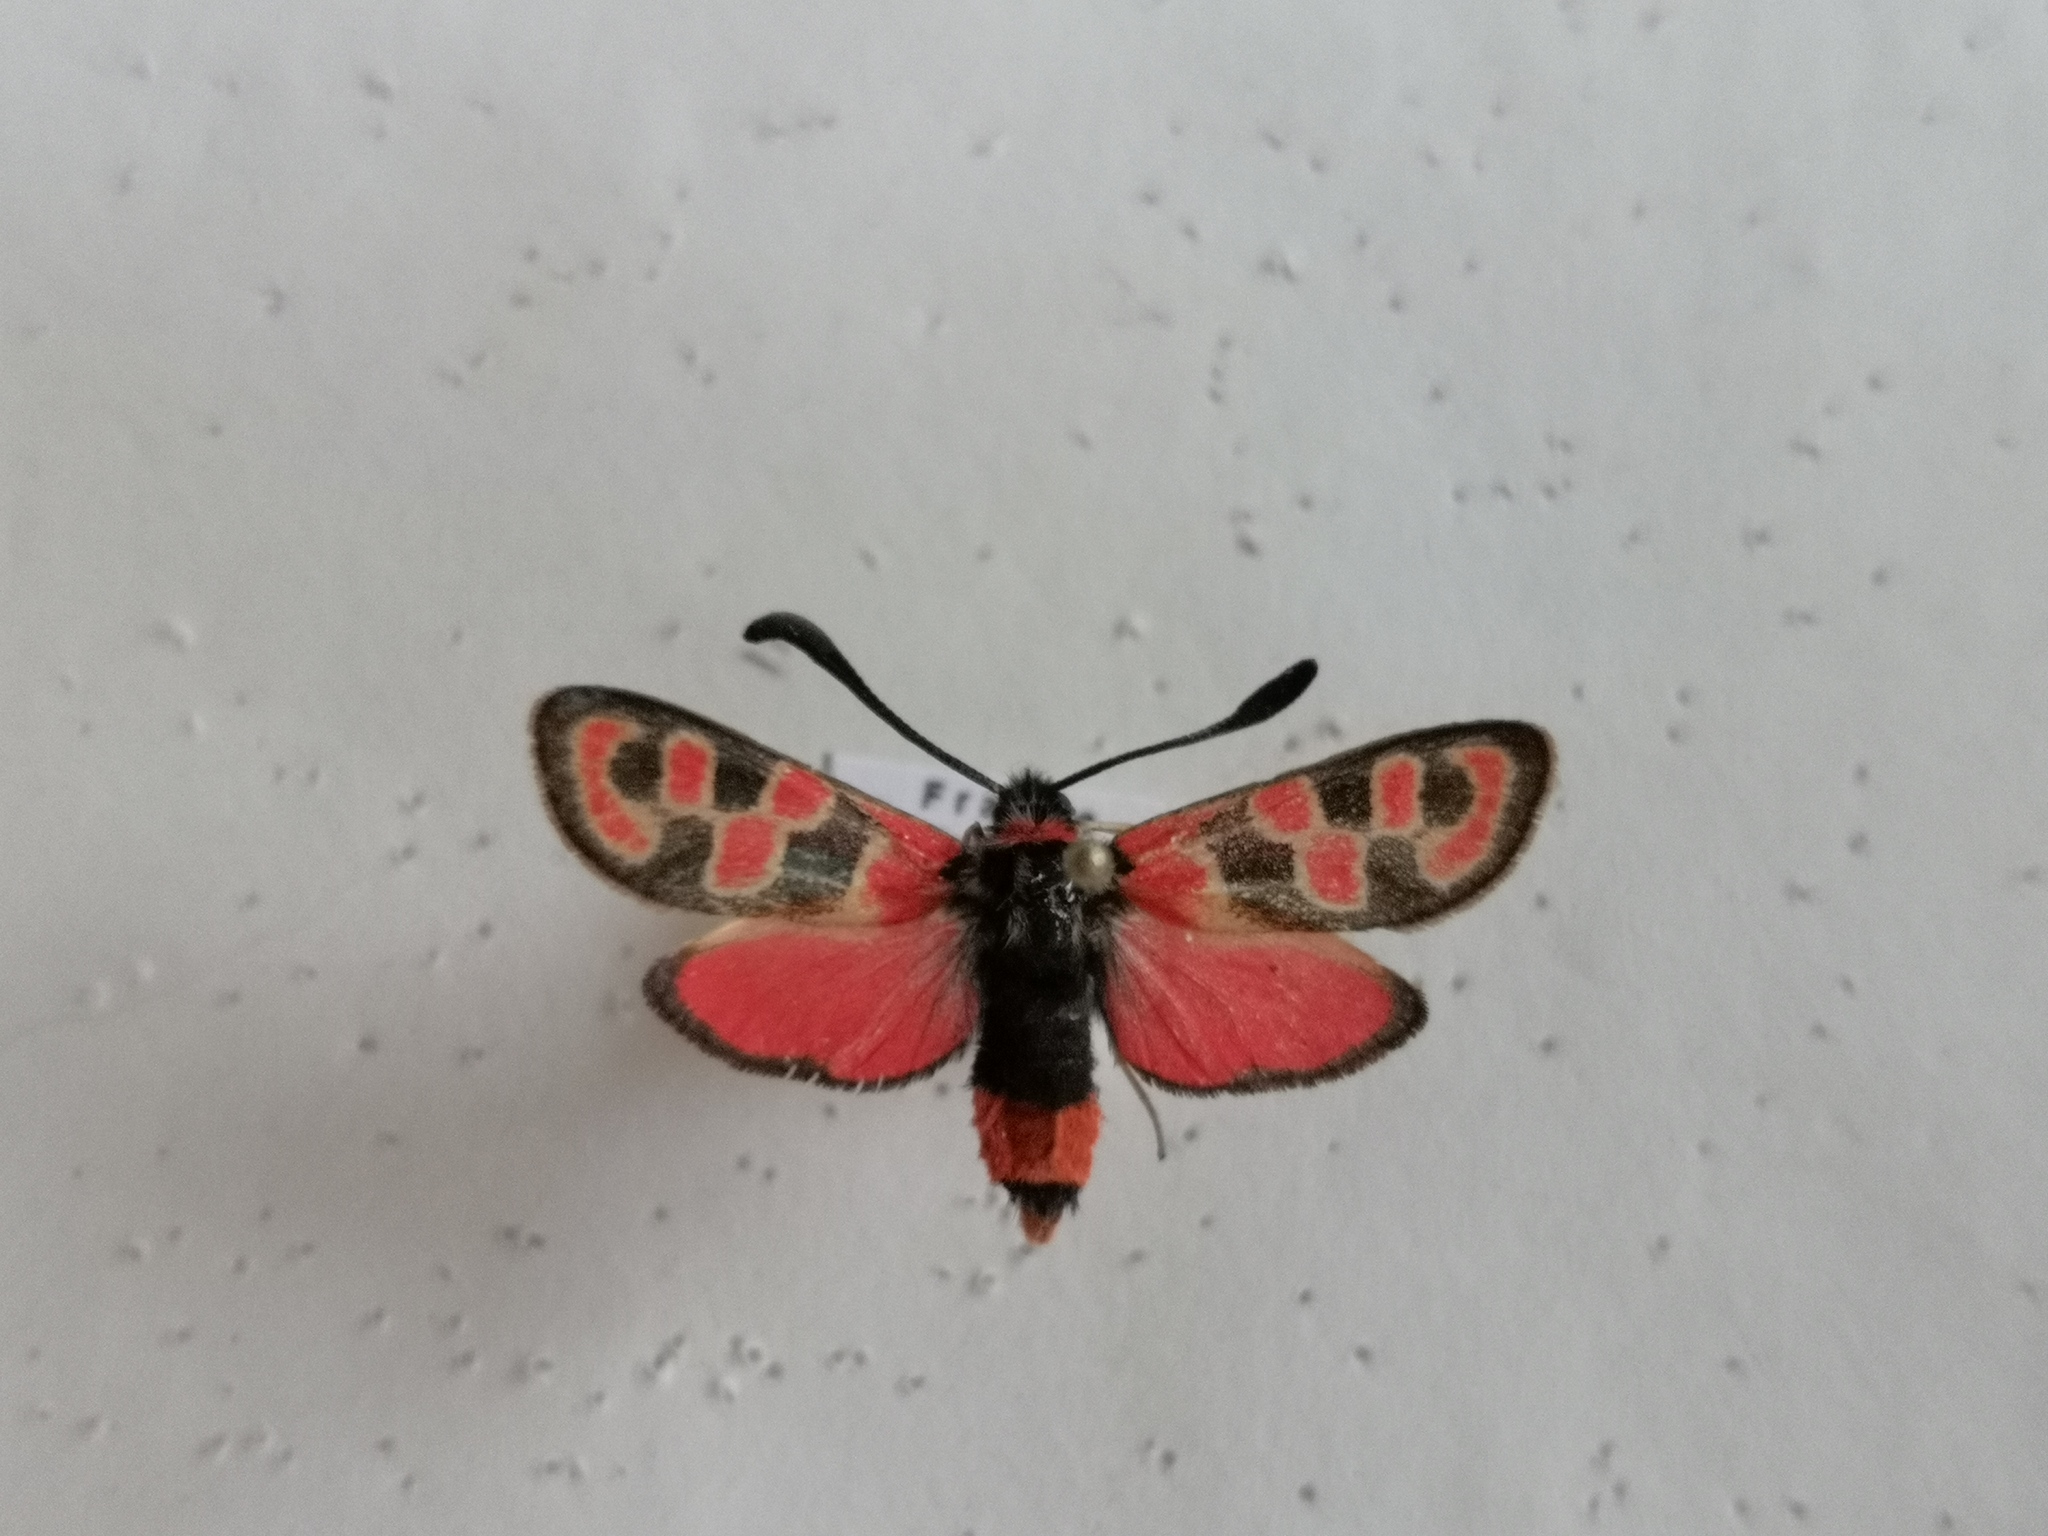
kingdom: Animalia
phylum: Arthropoda
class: Insecta
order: Lepidoptera
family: Zygaenidae
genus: Zygaena
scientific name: Zygaena fausta
